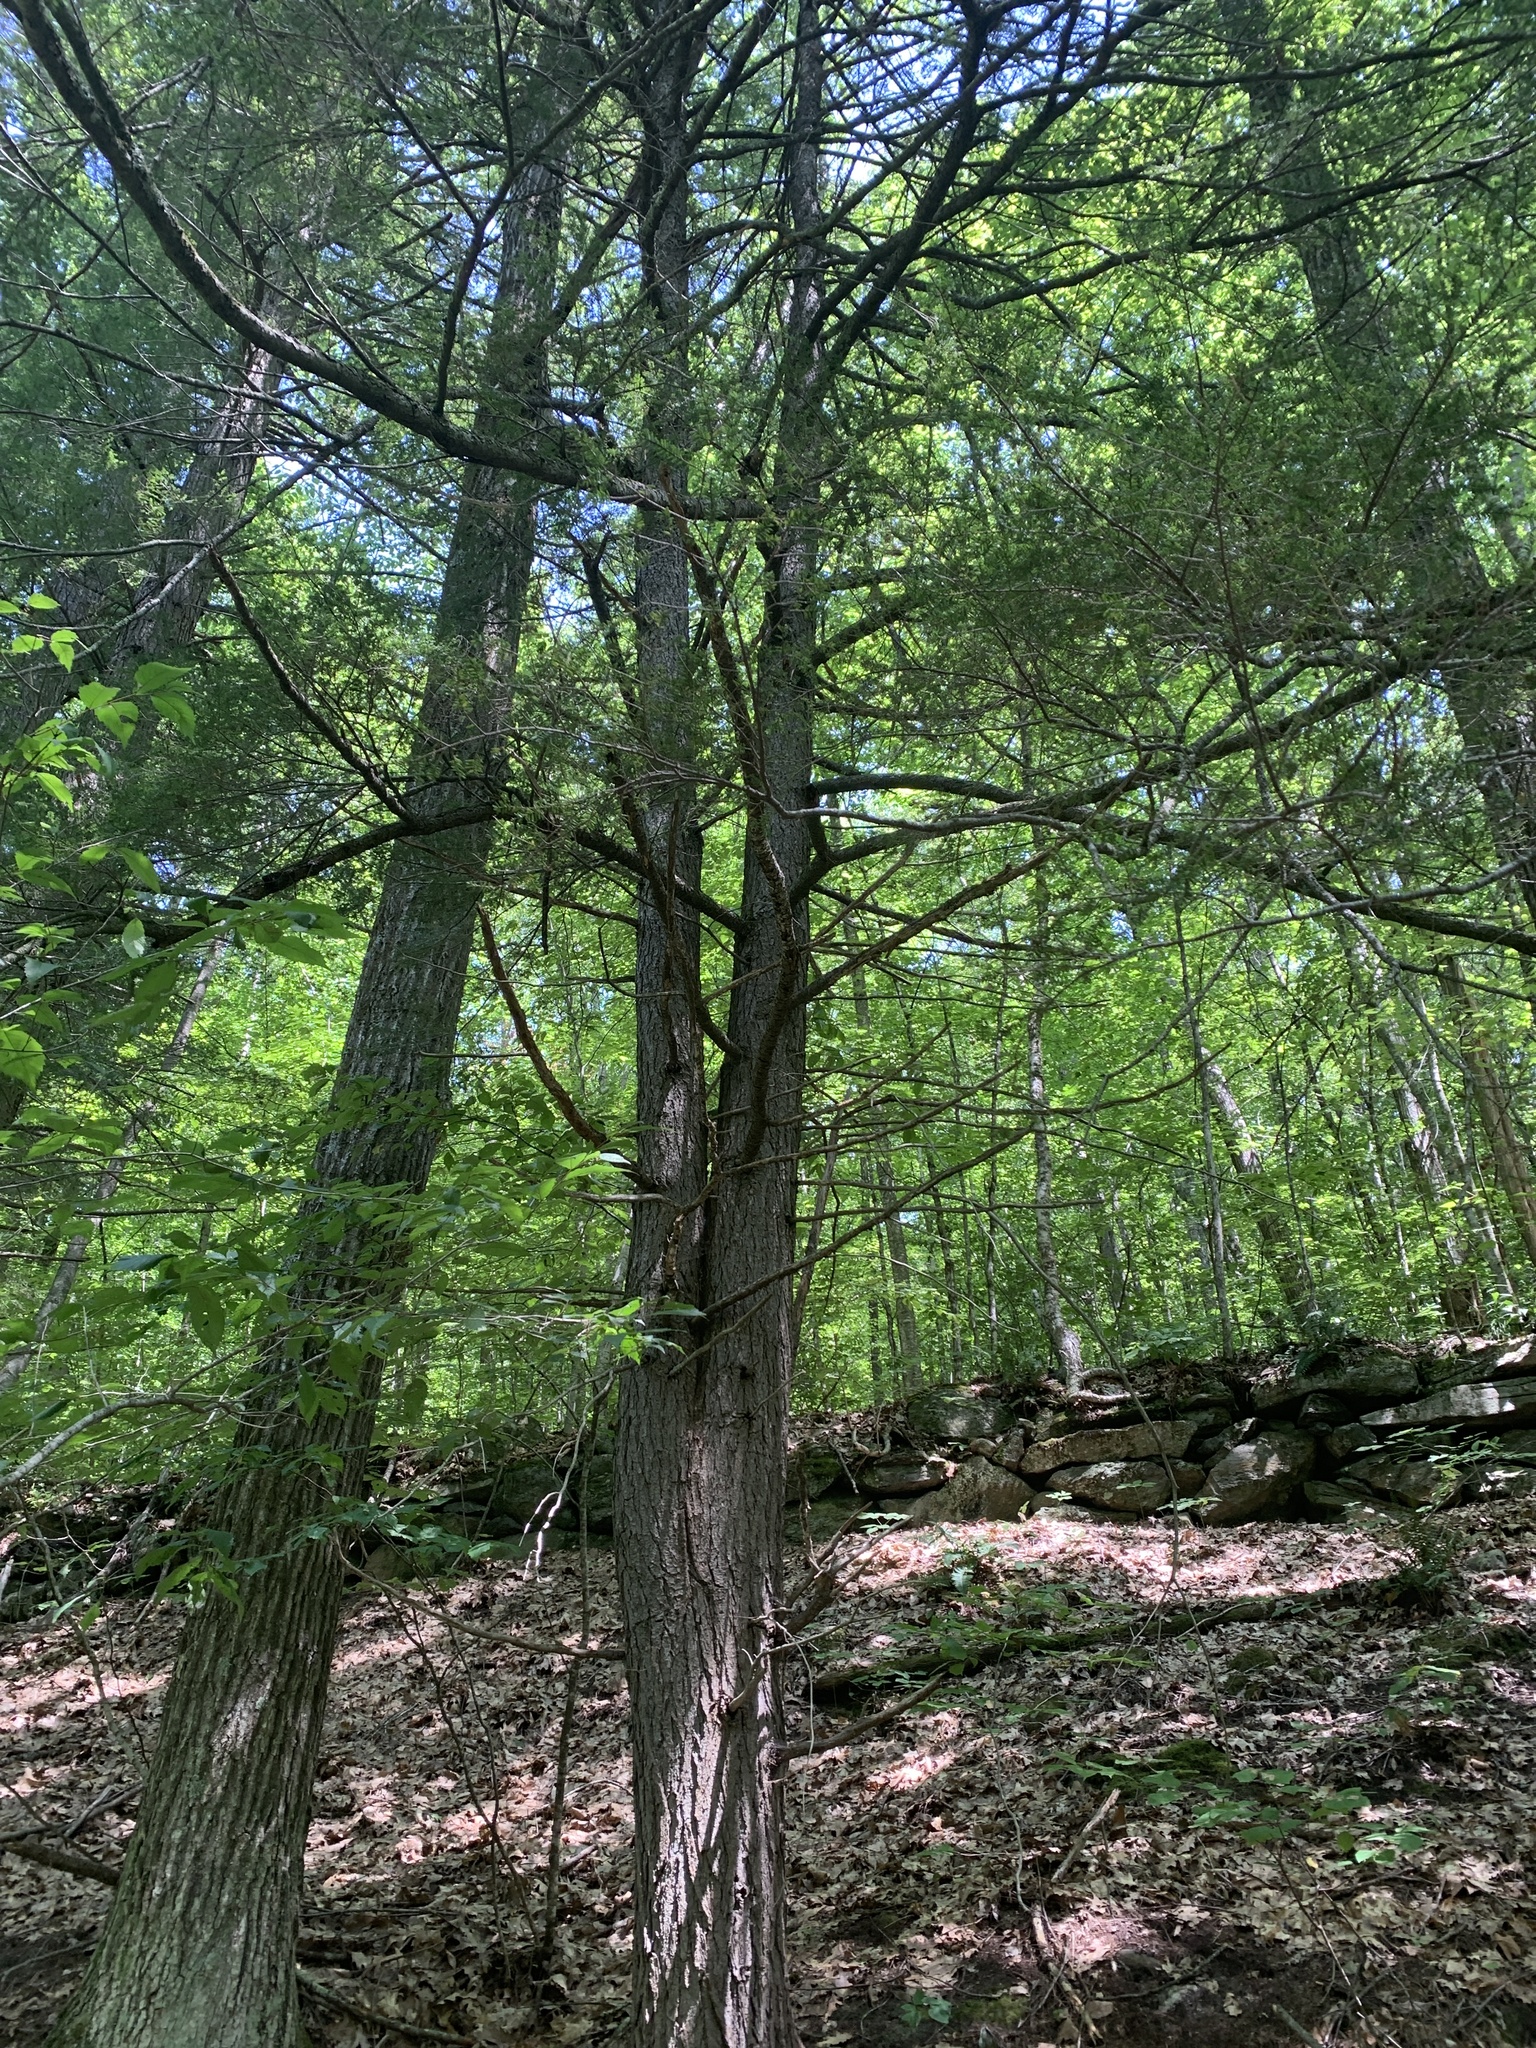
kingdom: Plantae
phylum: Tracheophyta
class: Pinopsida
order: Pinales
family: Pinaceae
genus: Tsuga
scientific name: Tsuga canadensis
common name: Eastern hemlock
